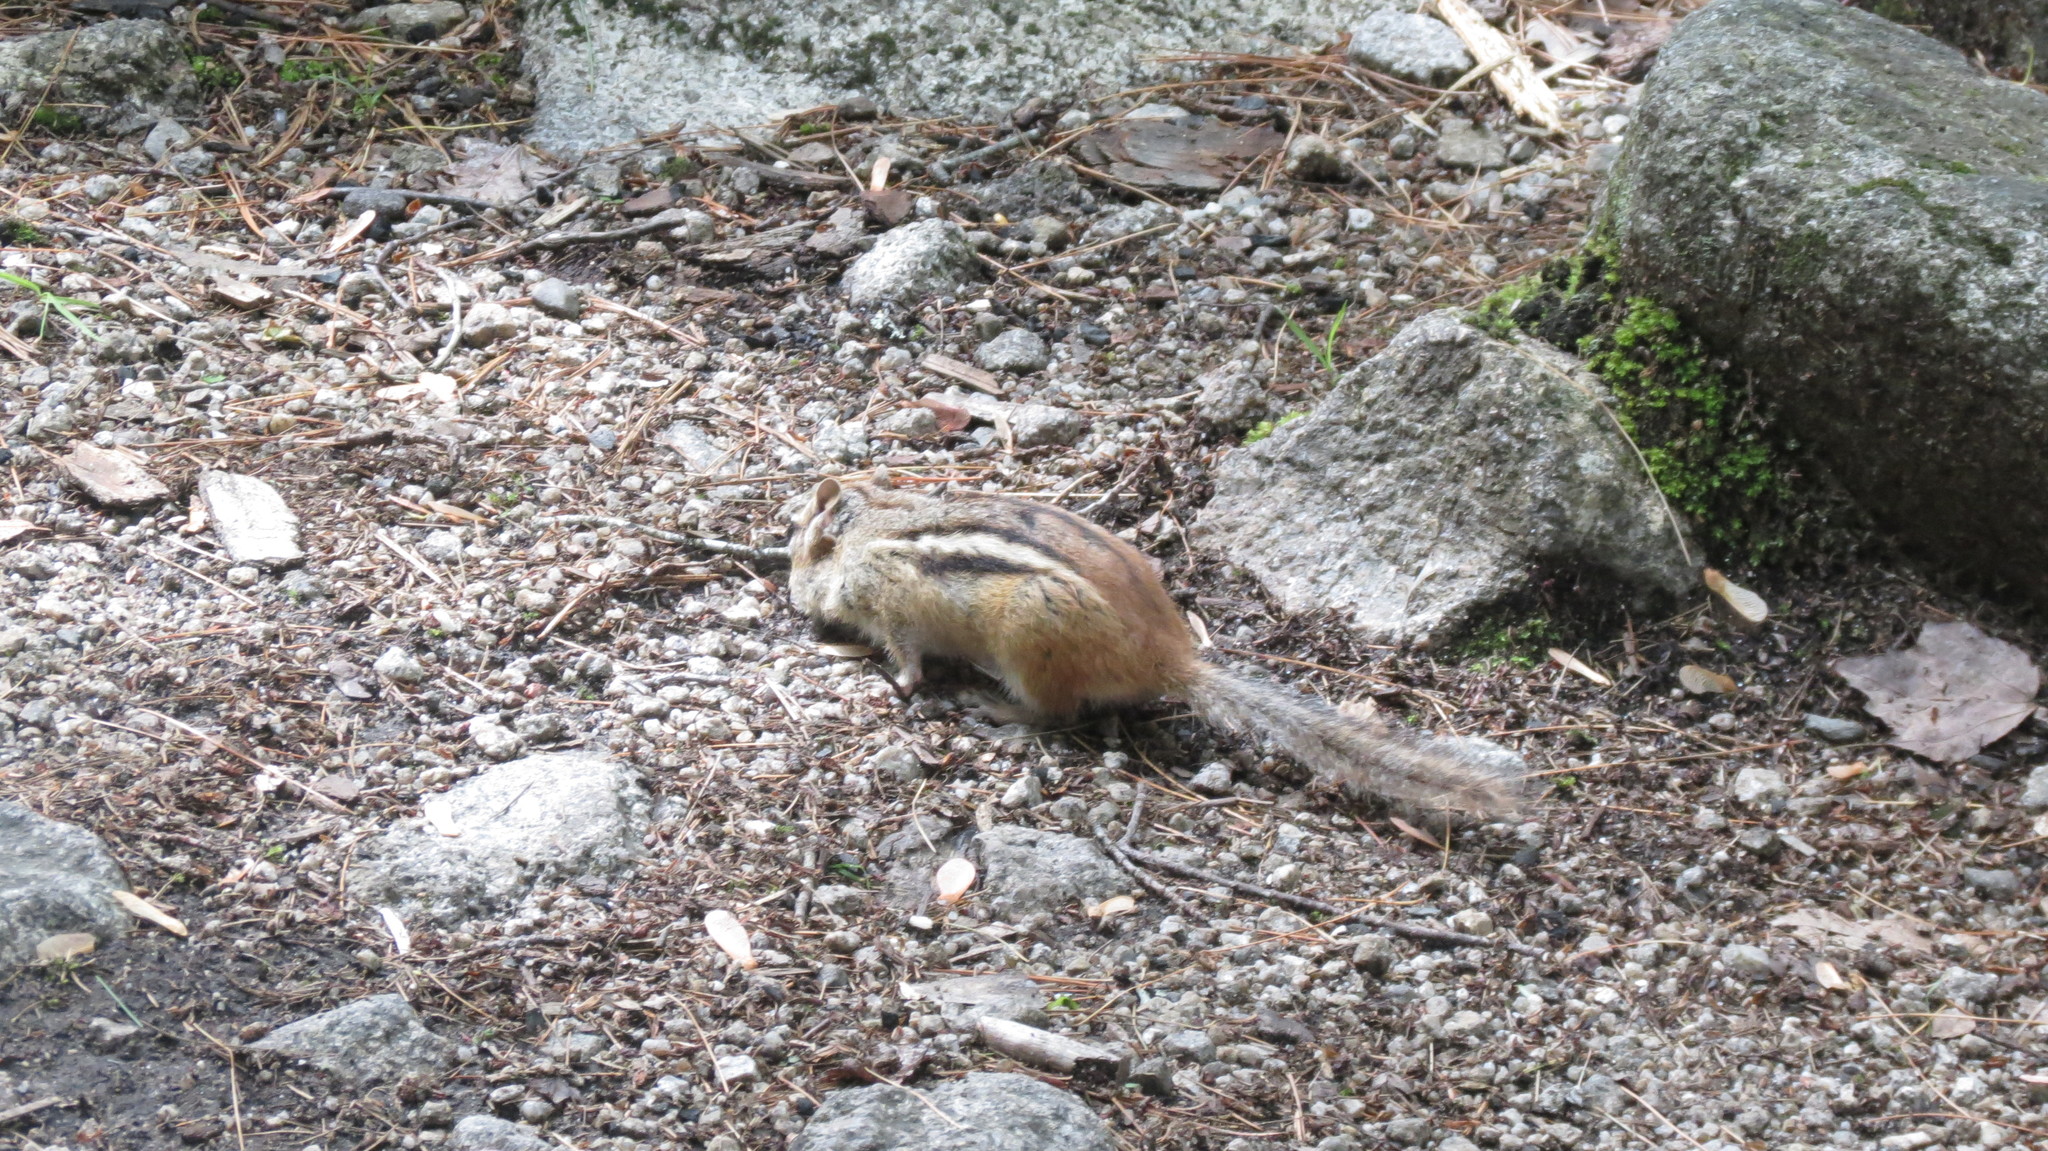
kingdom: Animalia
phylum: Chordata
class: Mammalia
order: Rodentia
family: Sciuridae
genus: Tamias
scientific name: Tamias striatus
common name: Eastern chipmunk
